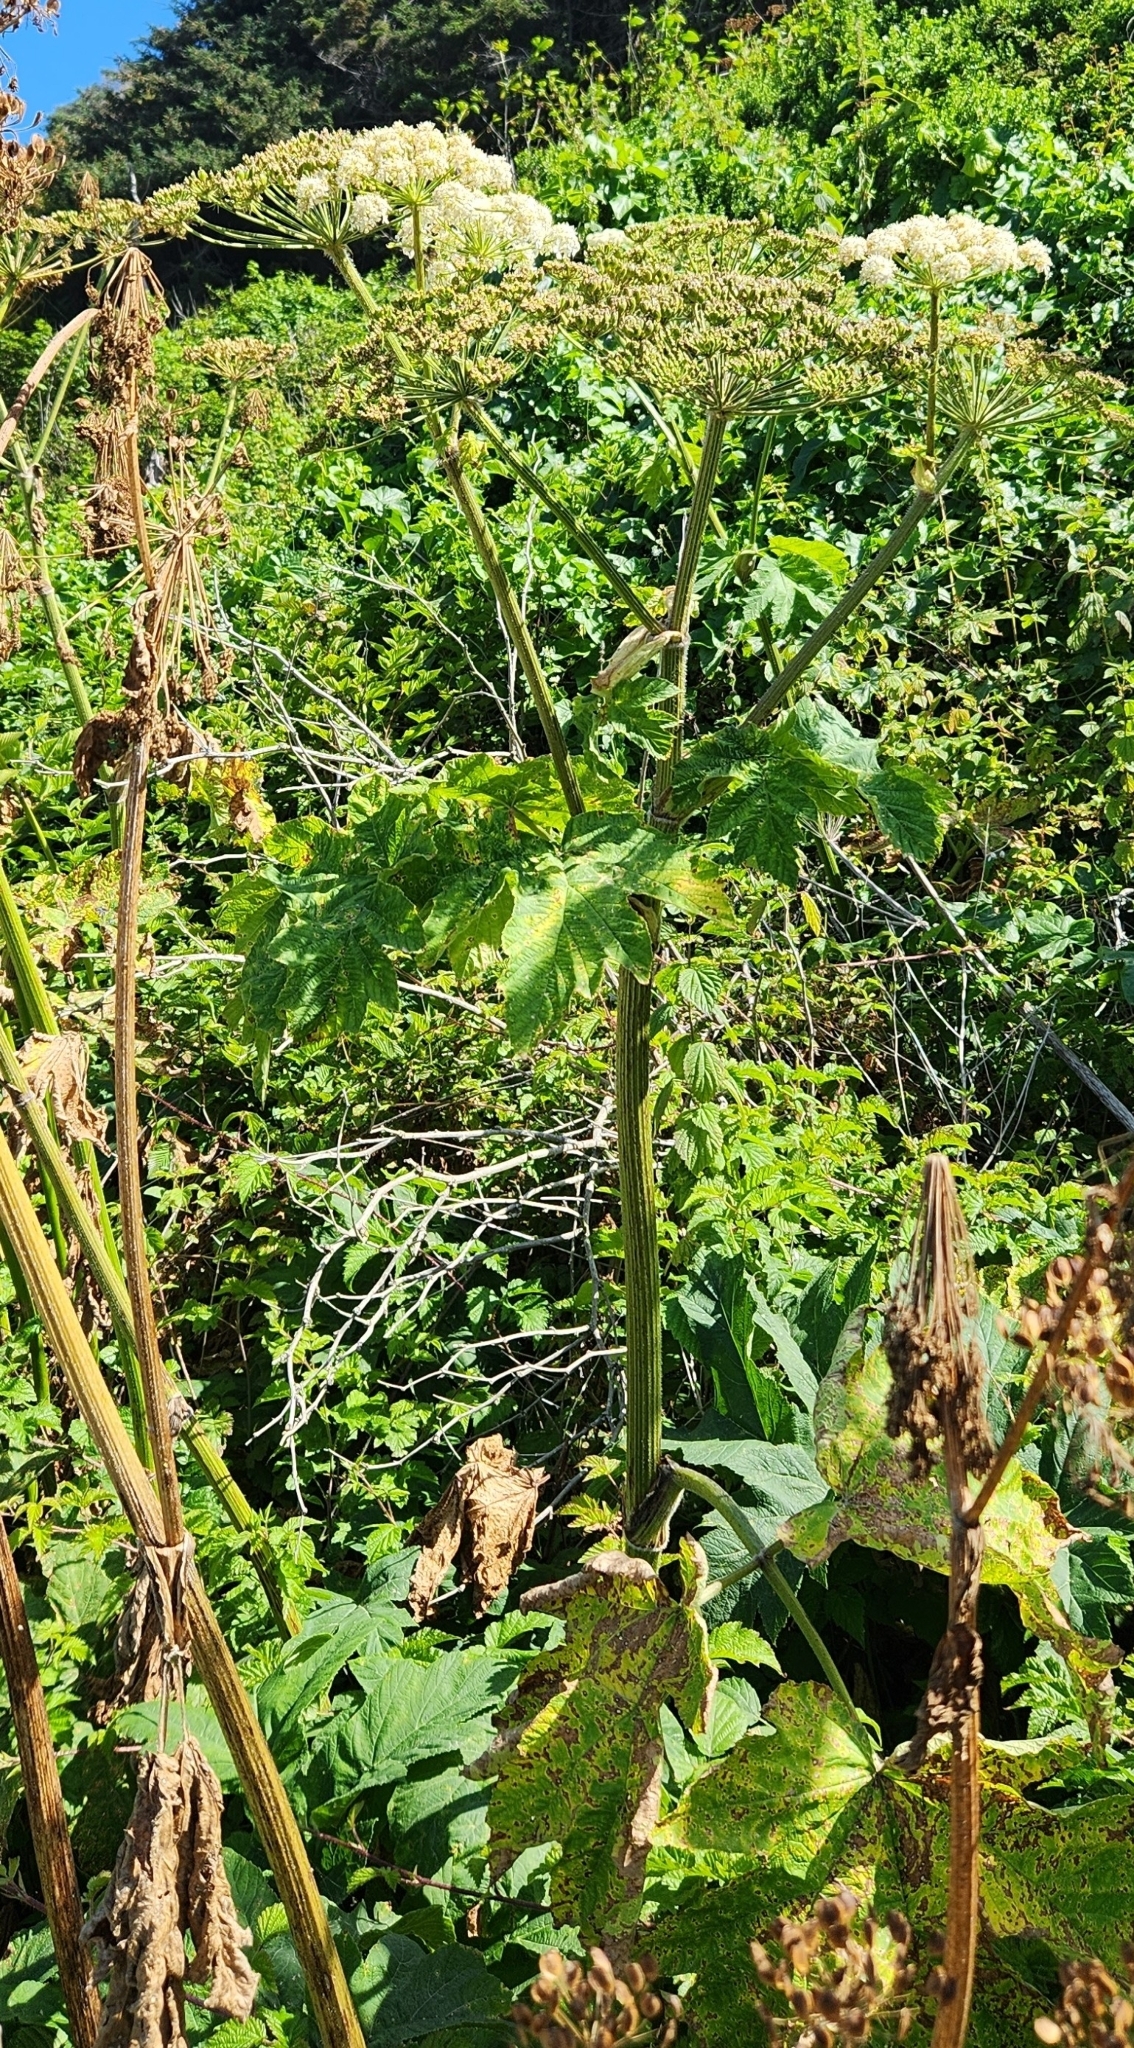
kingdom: Plantae
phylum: Tracheophyta
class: Magnoliopsida
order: Apiales
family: Apiaceae
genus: Heracleum
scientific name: Heracleum maximum
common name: American cow parsnip
